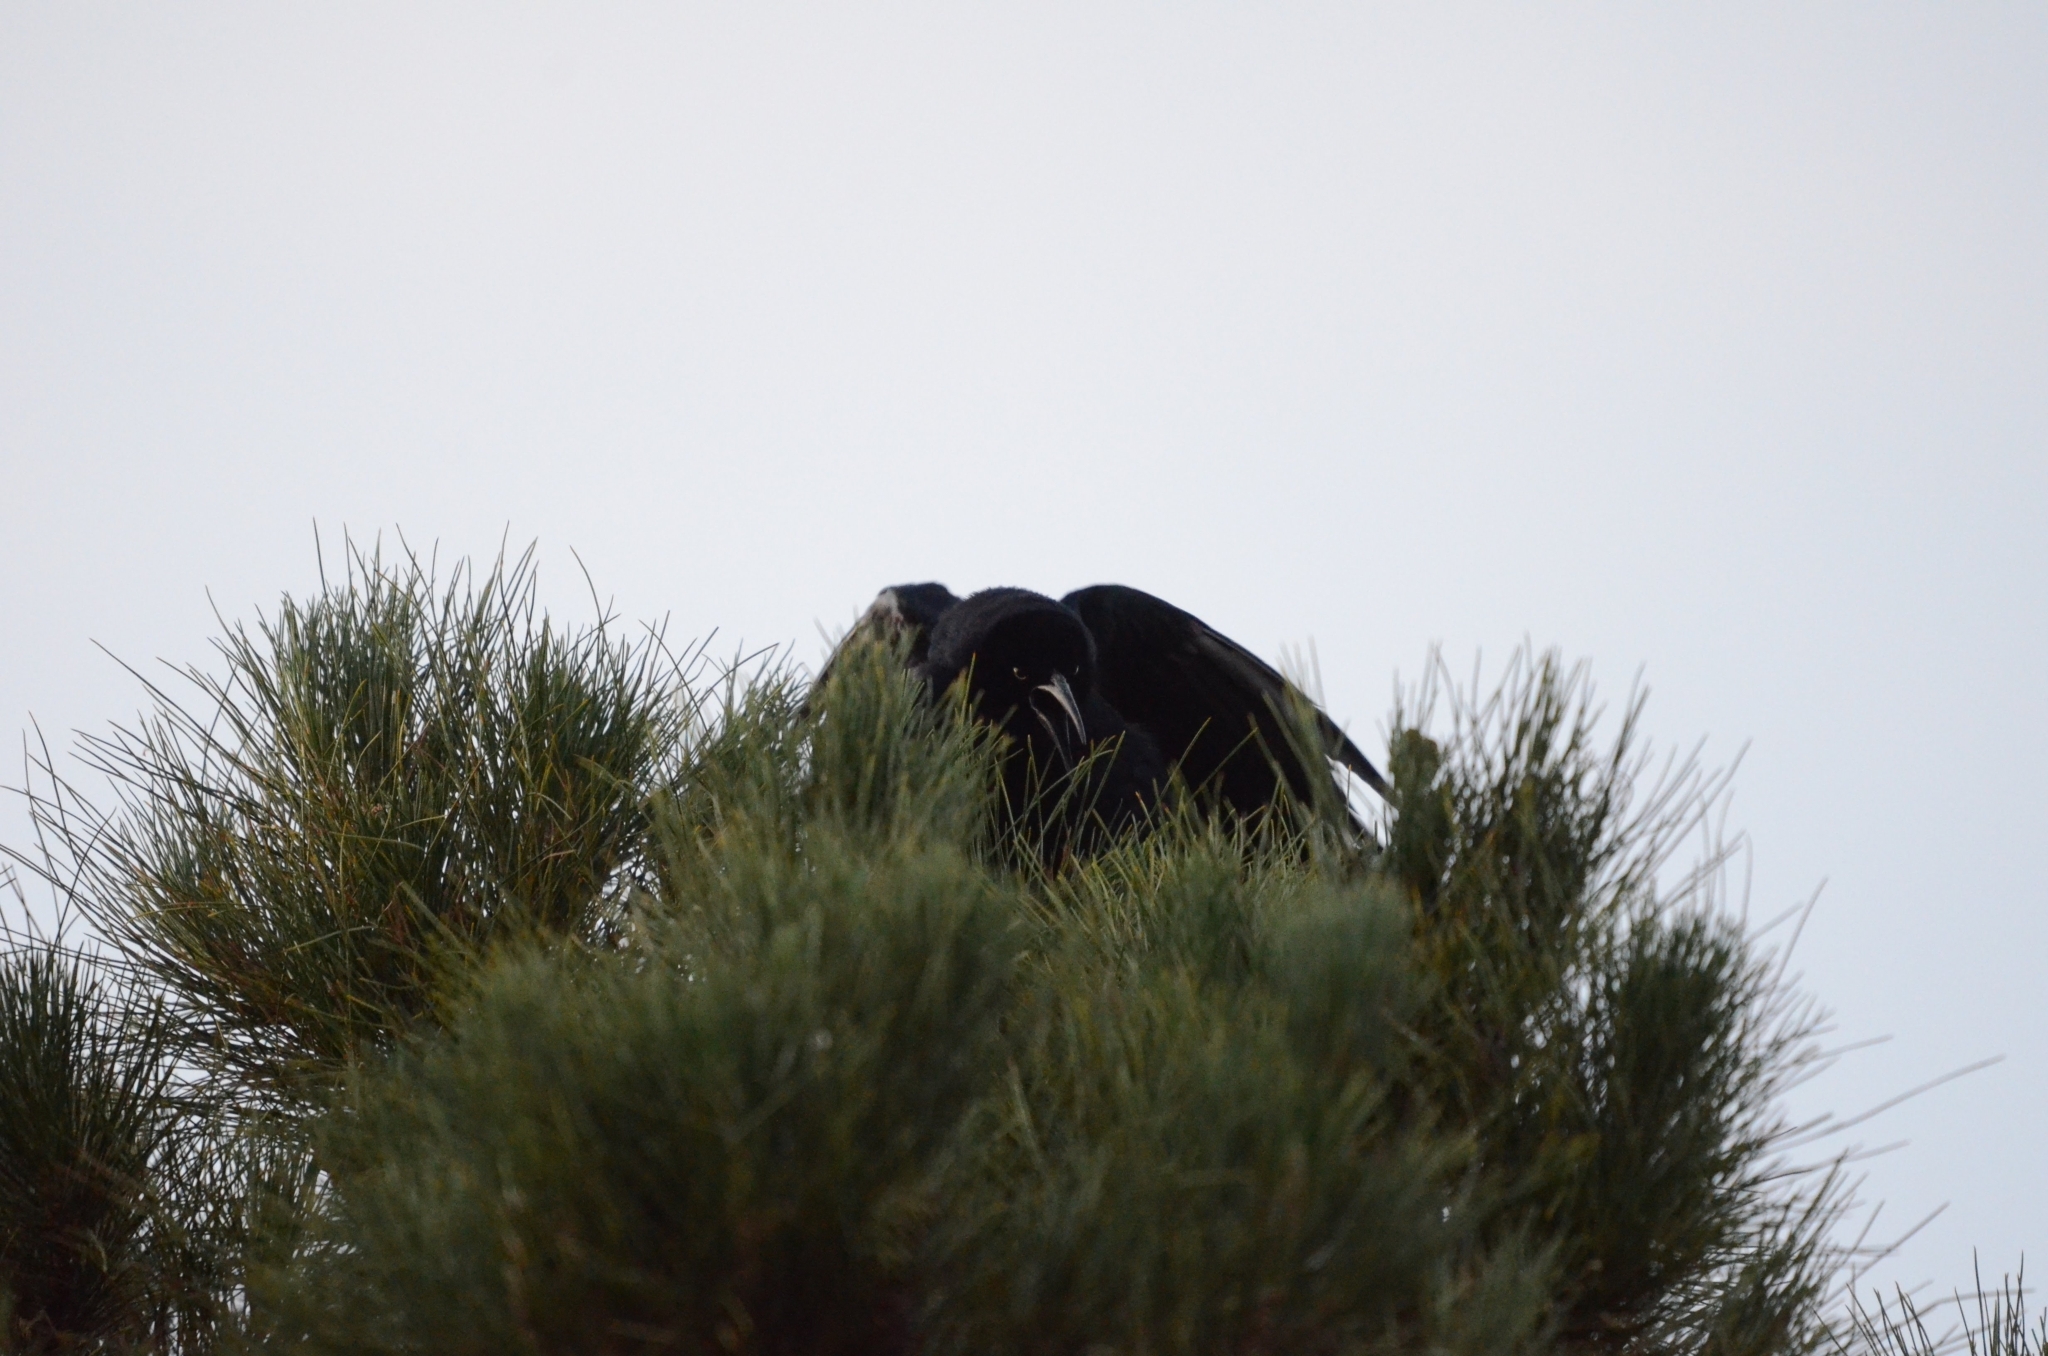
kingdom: Animalia
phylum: Chordata
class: Aves
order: Passeriformes
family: Icteridae
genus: Quiscalus
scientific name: Quiscalus mexicanus
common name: Great-tailed grackle
